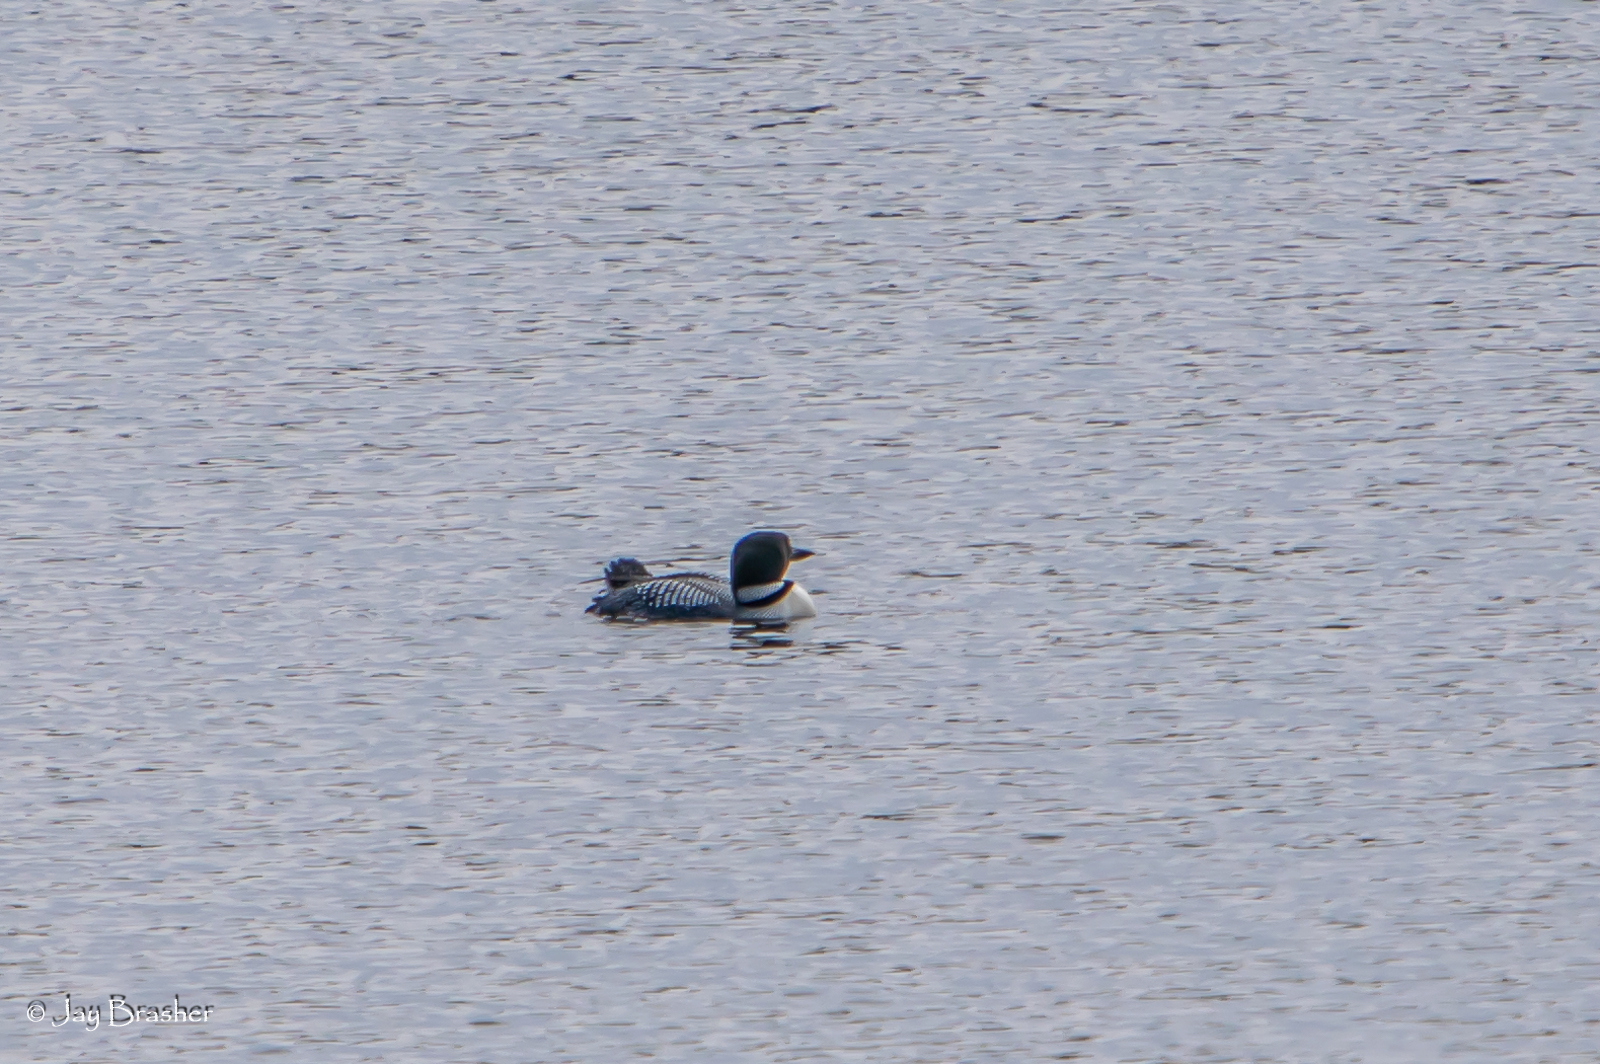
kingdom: Animalia
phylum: Chordata
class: Aves
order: Gaviiformes
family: Gaviidae
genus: Gavia
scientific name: Gavia immer
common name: Common loon
